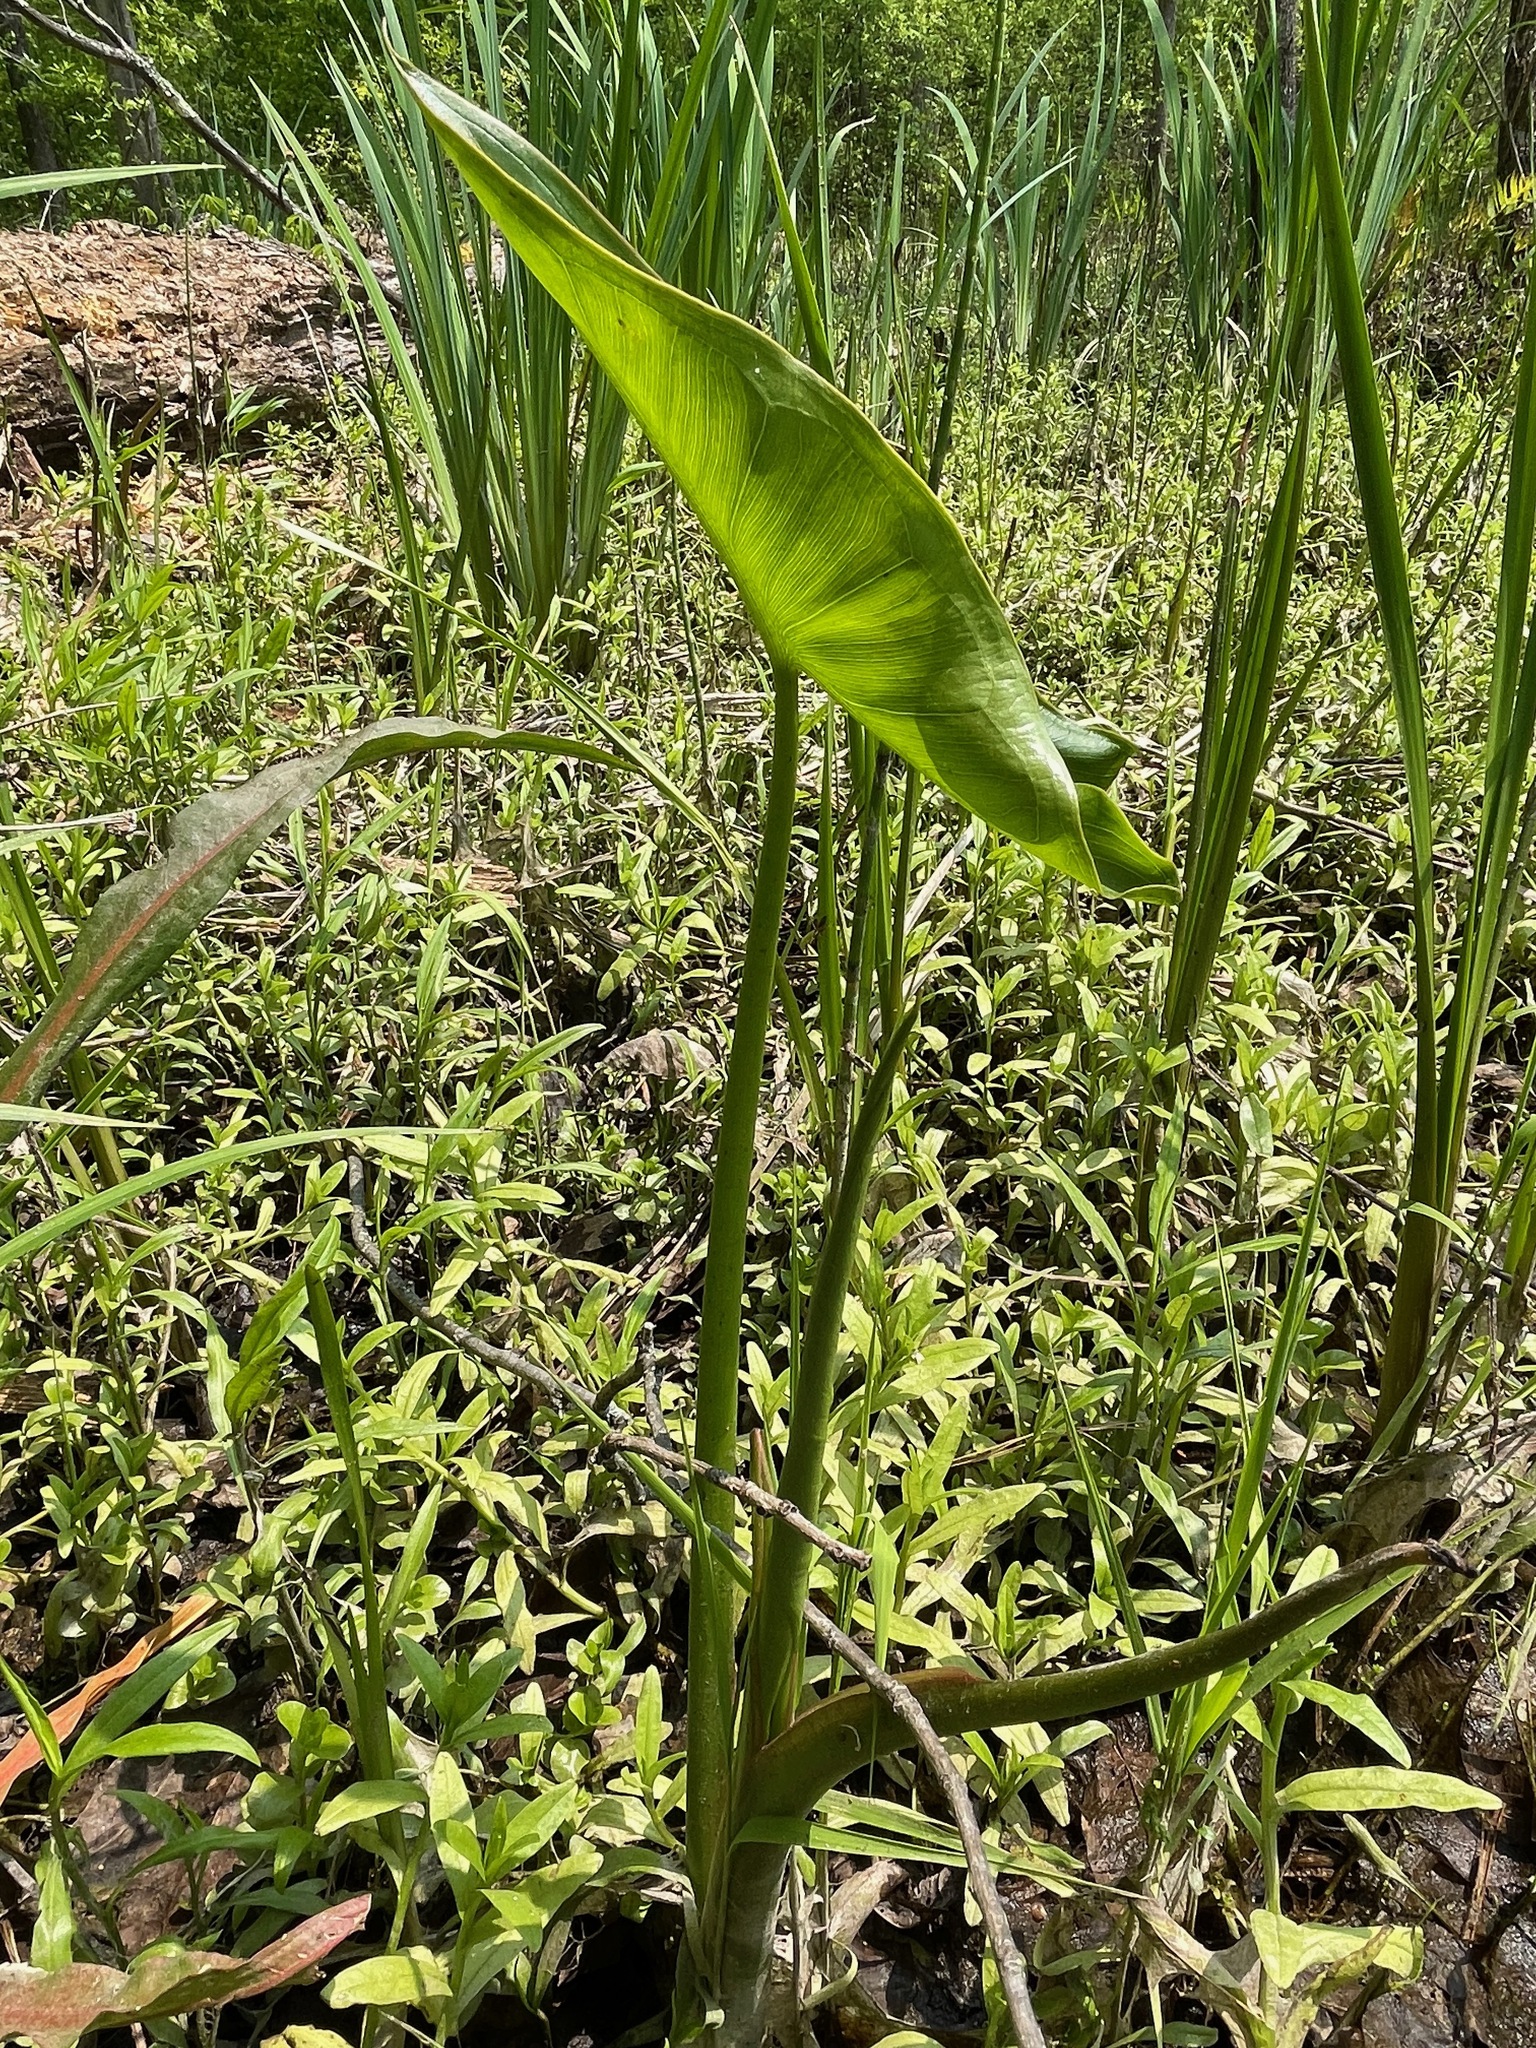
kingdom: Plantae
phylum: Tracheophyta
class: Liliopsida
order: Alismatales
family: Araceae
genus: Peltandra
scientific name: Peltandra virginica
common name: Arrow arum
